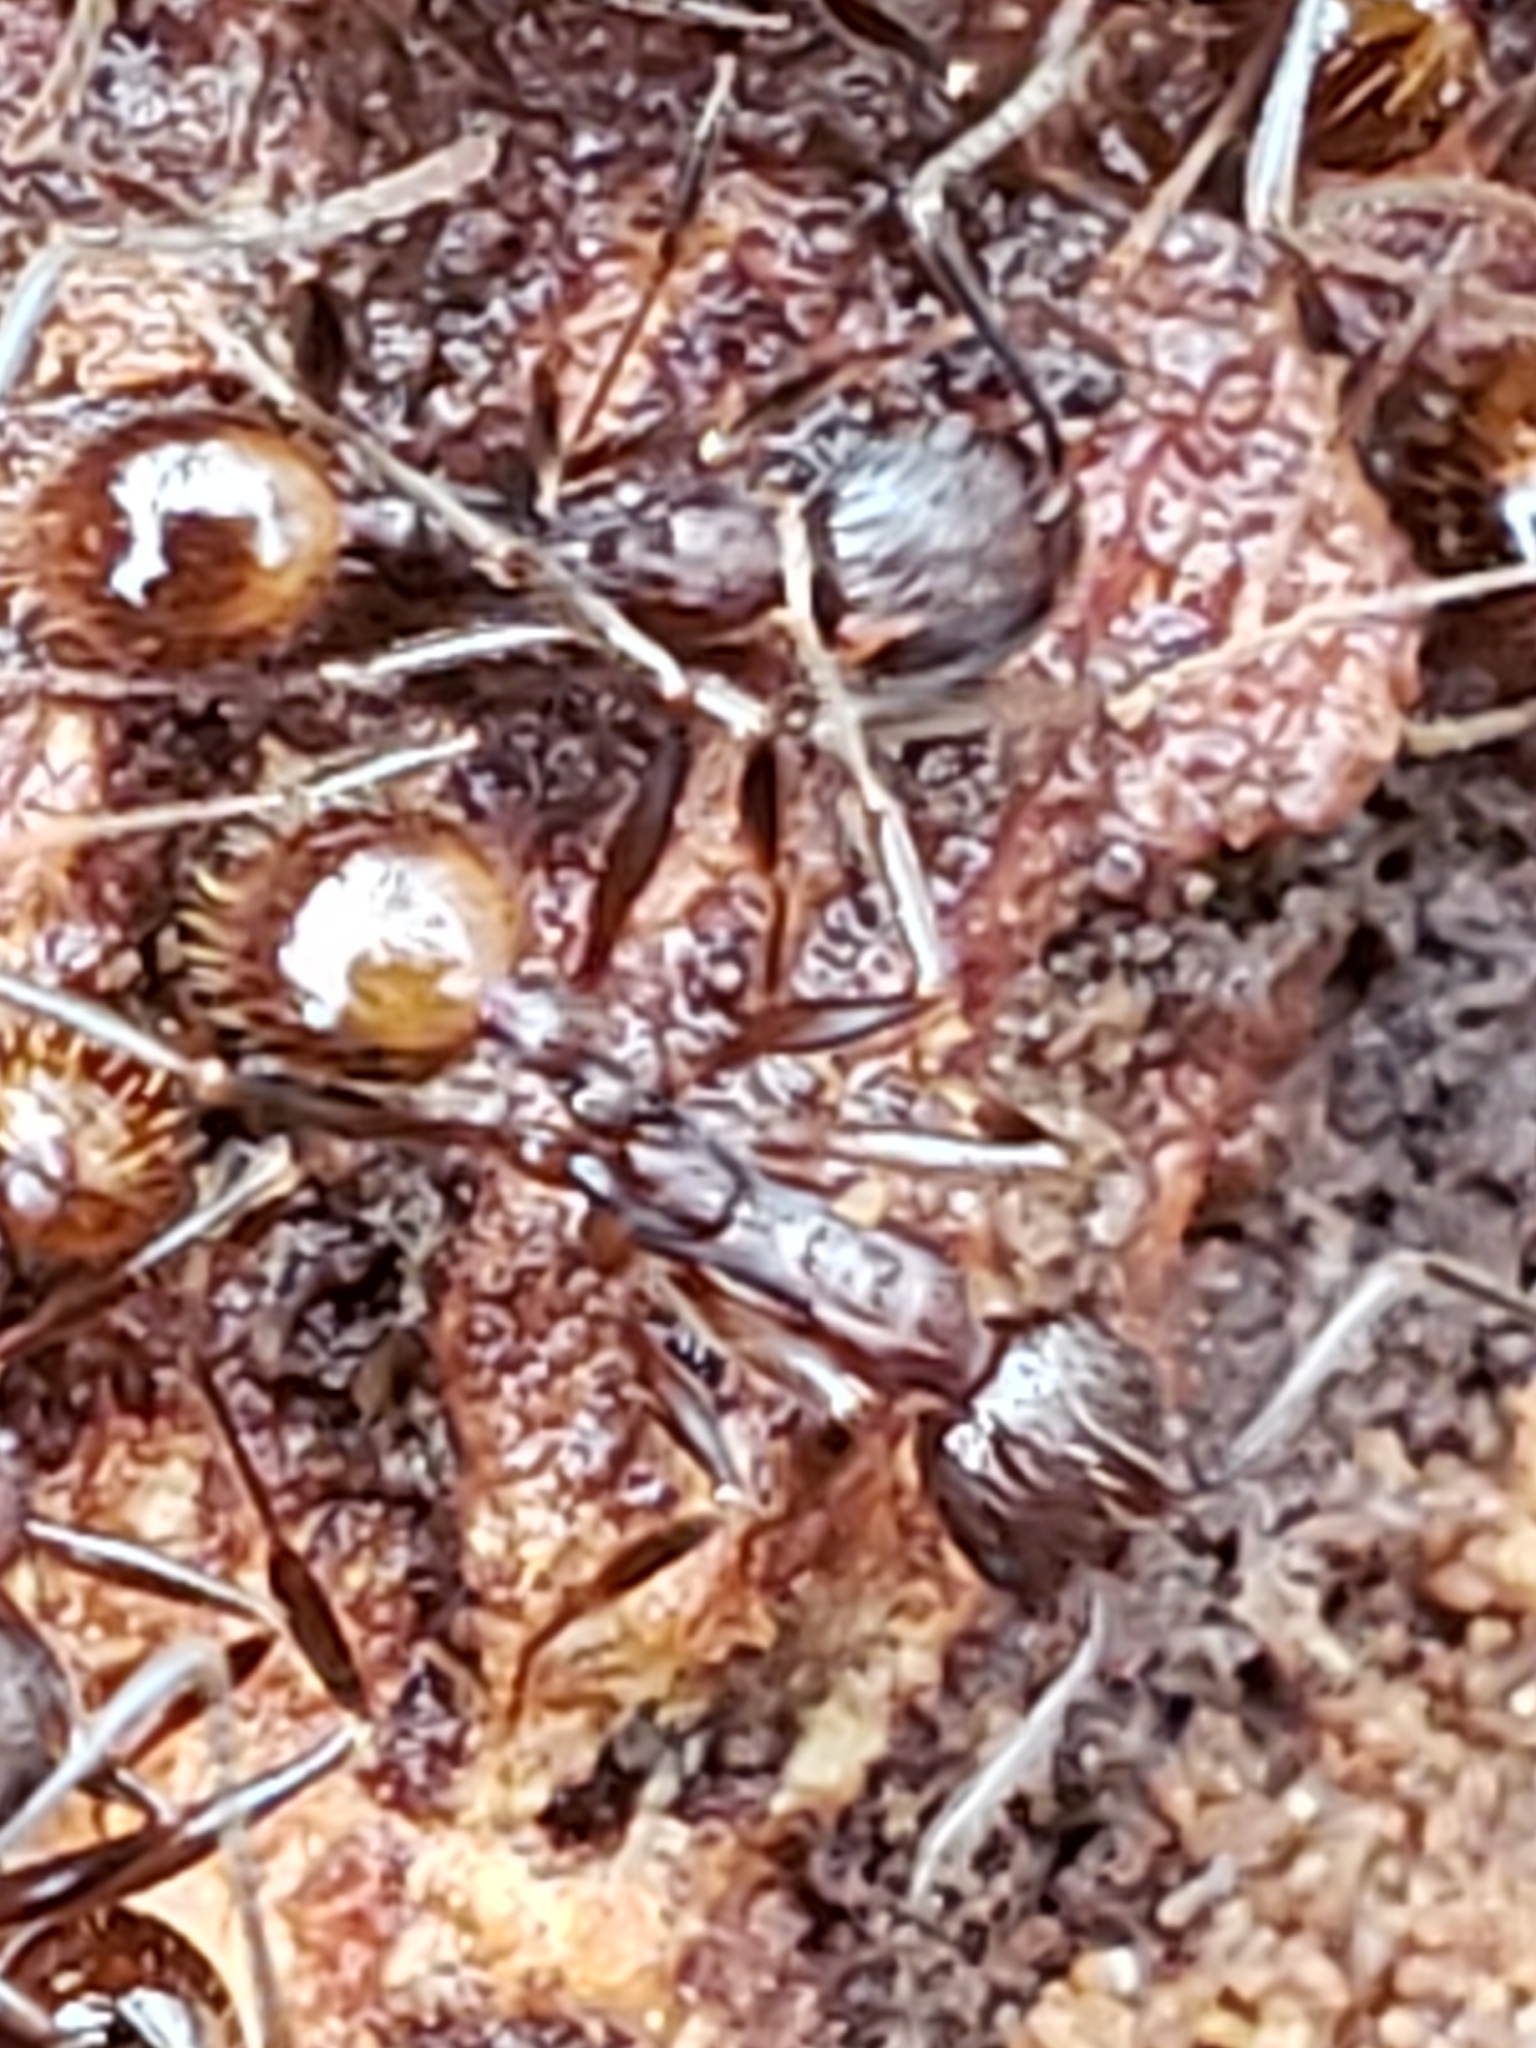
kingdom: Animalia
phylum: Arthropoda
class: Insecta
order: Hymenoptera
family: Formicidae
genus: Aphaenogaster
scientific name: Aphaenogaster fulva
